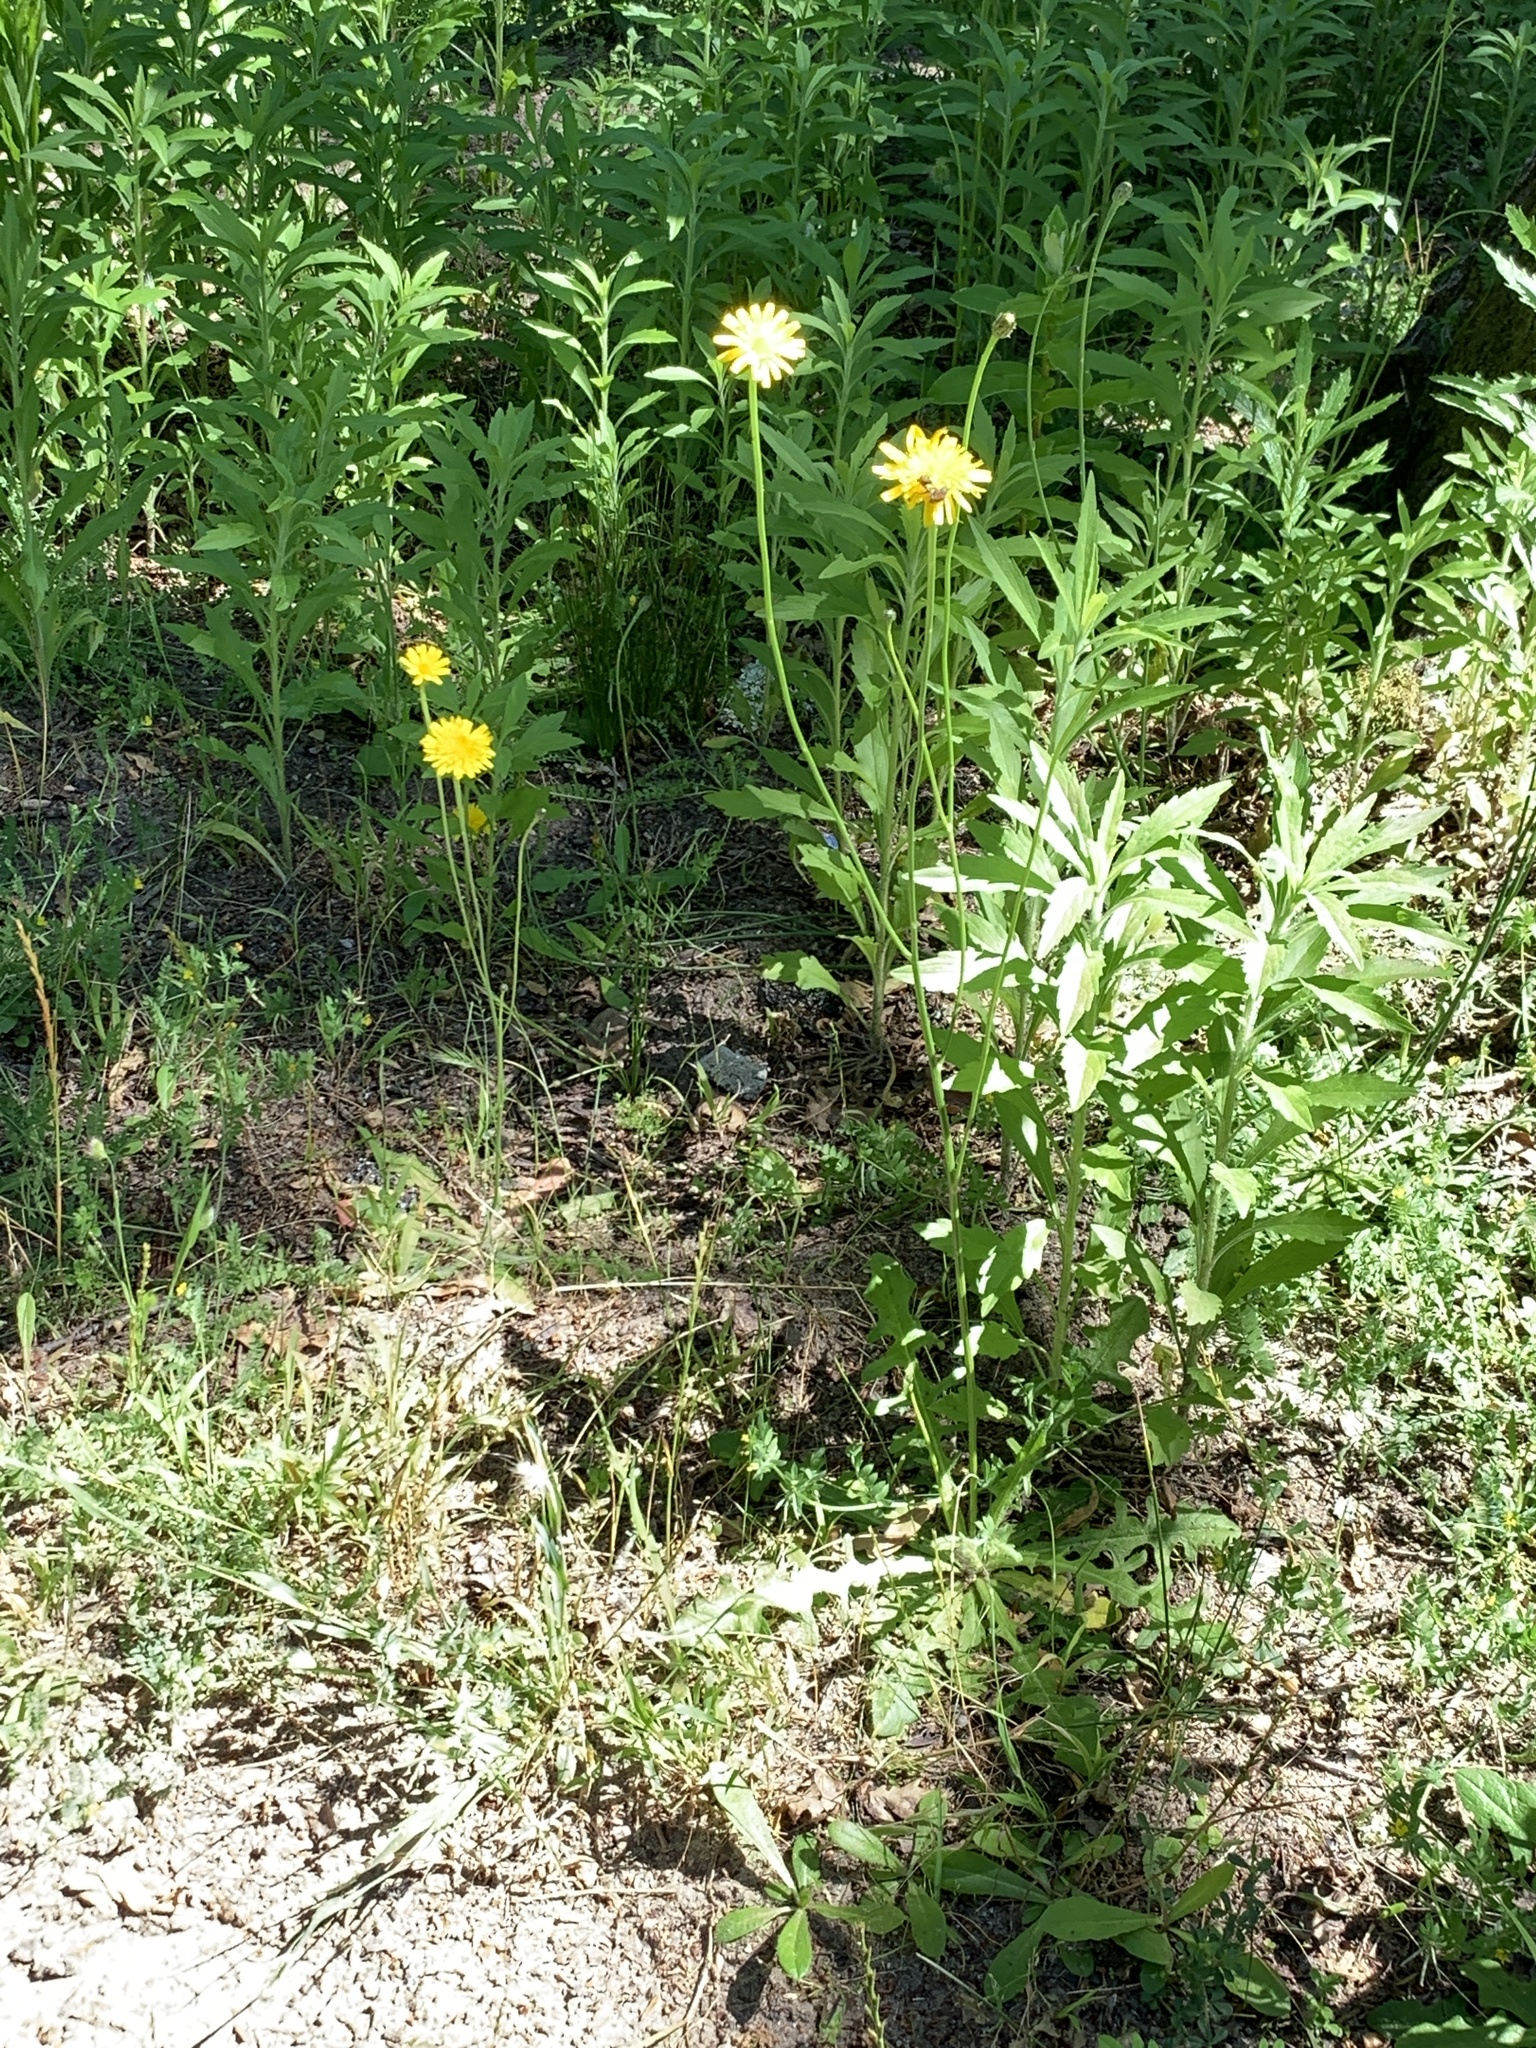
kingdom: Plantae
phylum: Tracheophyta
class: Magnoliopsida
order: Asterales
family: Asteraceae
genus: Hypochaeris
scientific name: Hypochaeris radicata
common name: Flatweed
